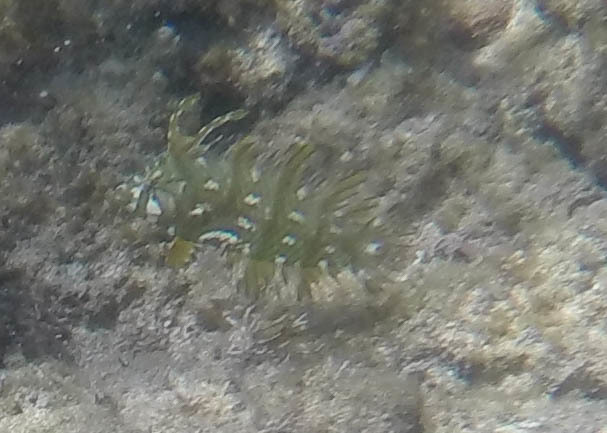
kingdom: Animalia
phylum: Chordata
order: Perciformes
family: Labridae
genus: Novaculichthys
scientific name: Novaculichthys taeniourus
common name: Rockmover wrasse
